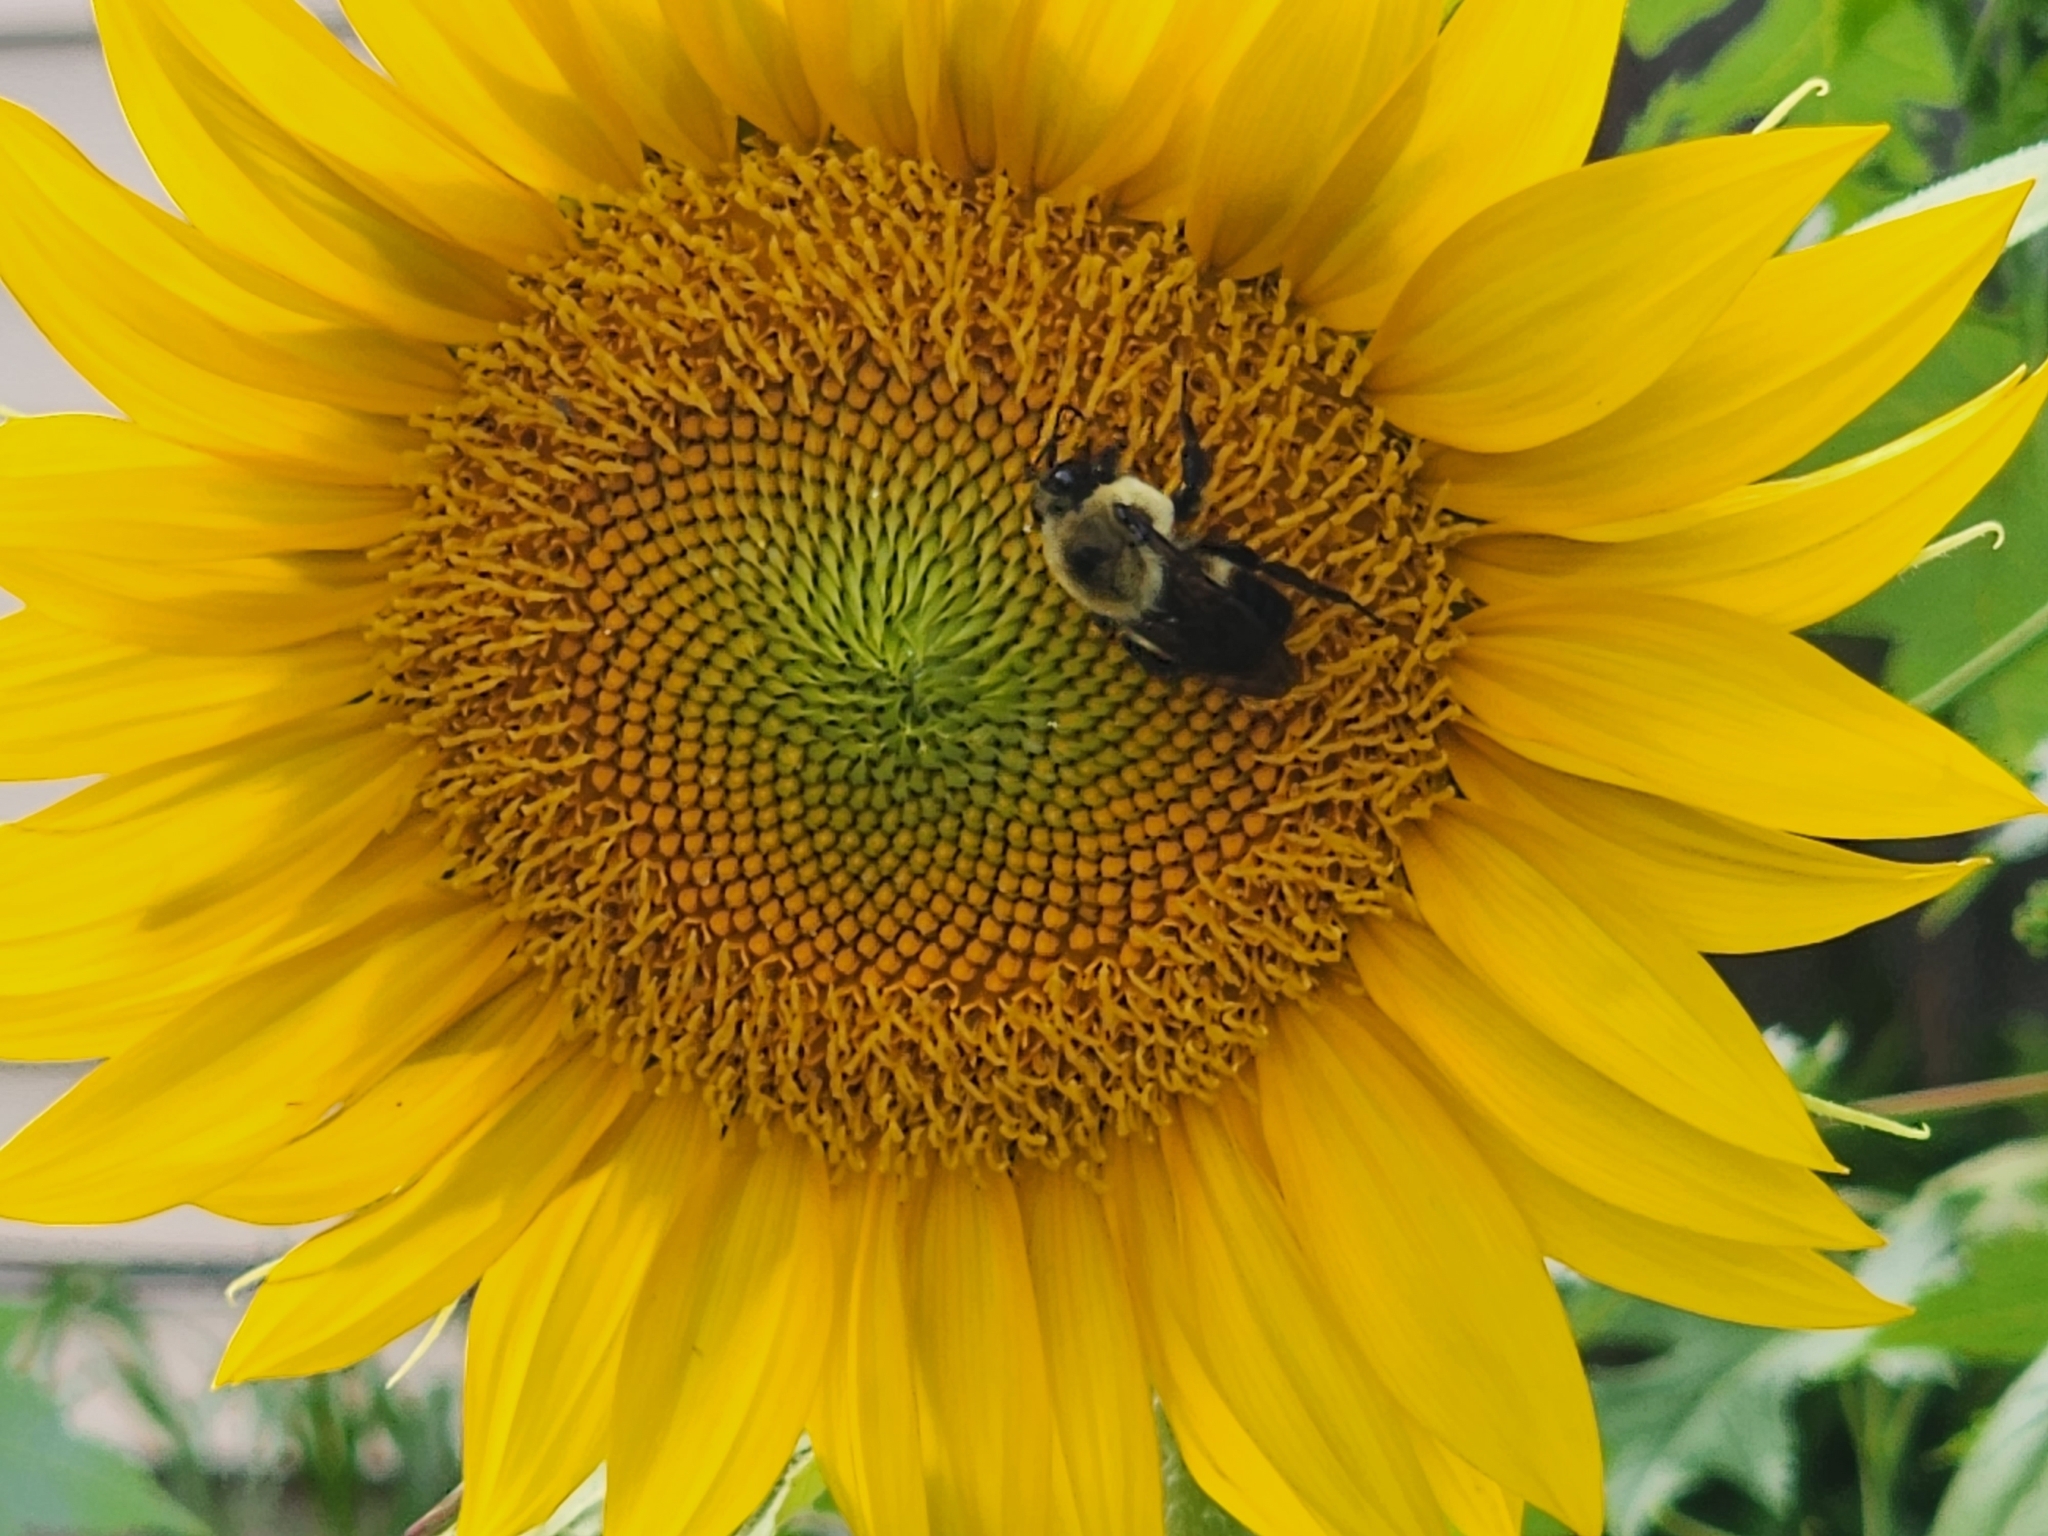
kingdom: Animalia
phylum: Arthropoda
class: Insecta
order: Hymenoptera
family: Apidae
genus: Bombus
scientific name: Bombus griseocollis
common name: Brown-belted bumble bee
